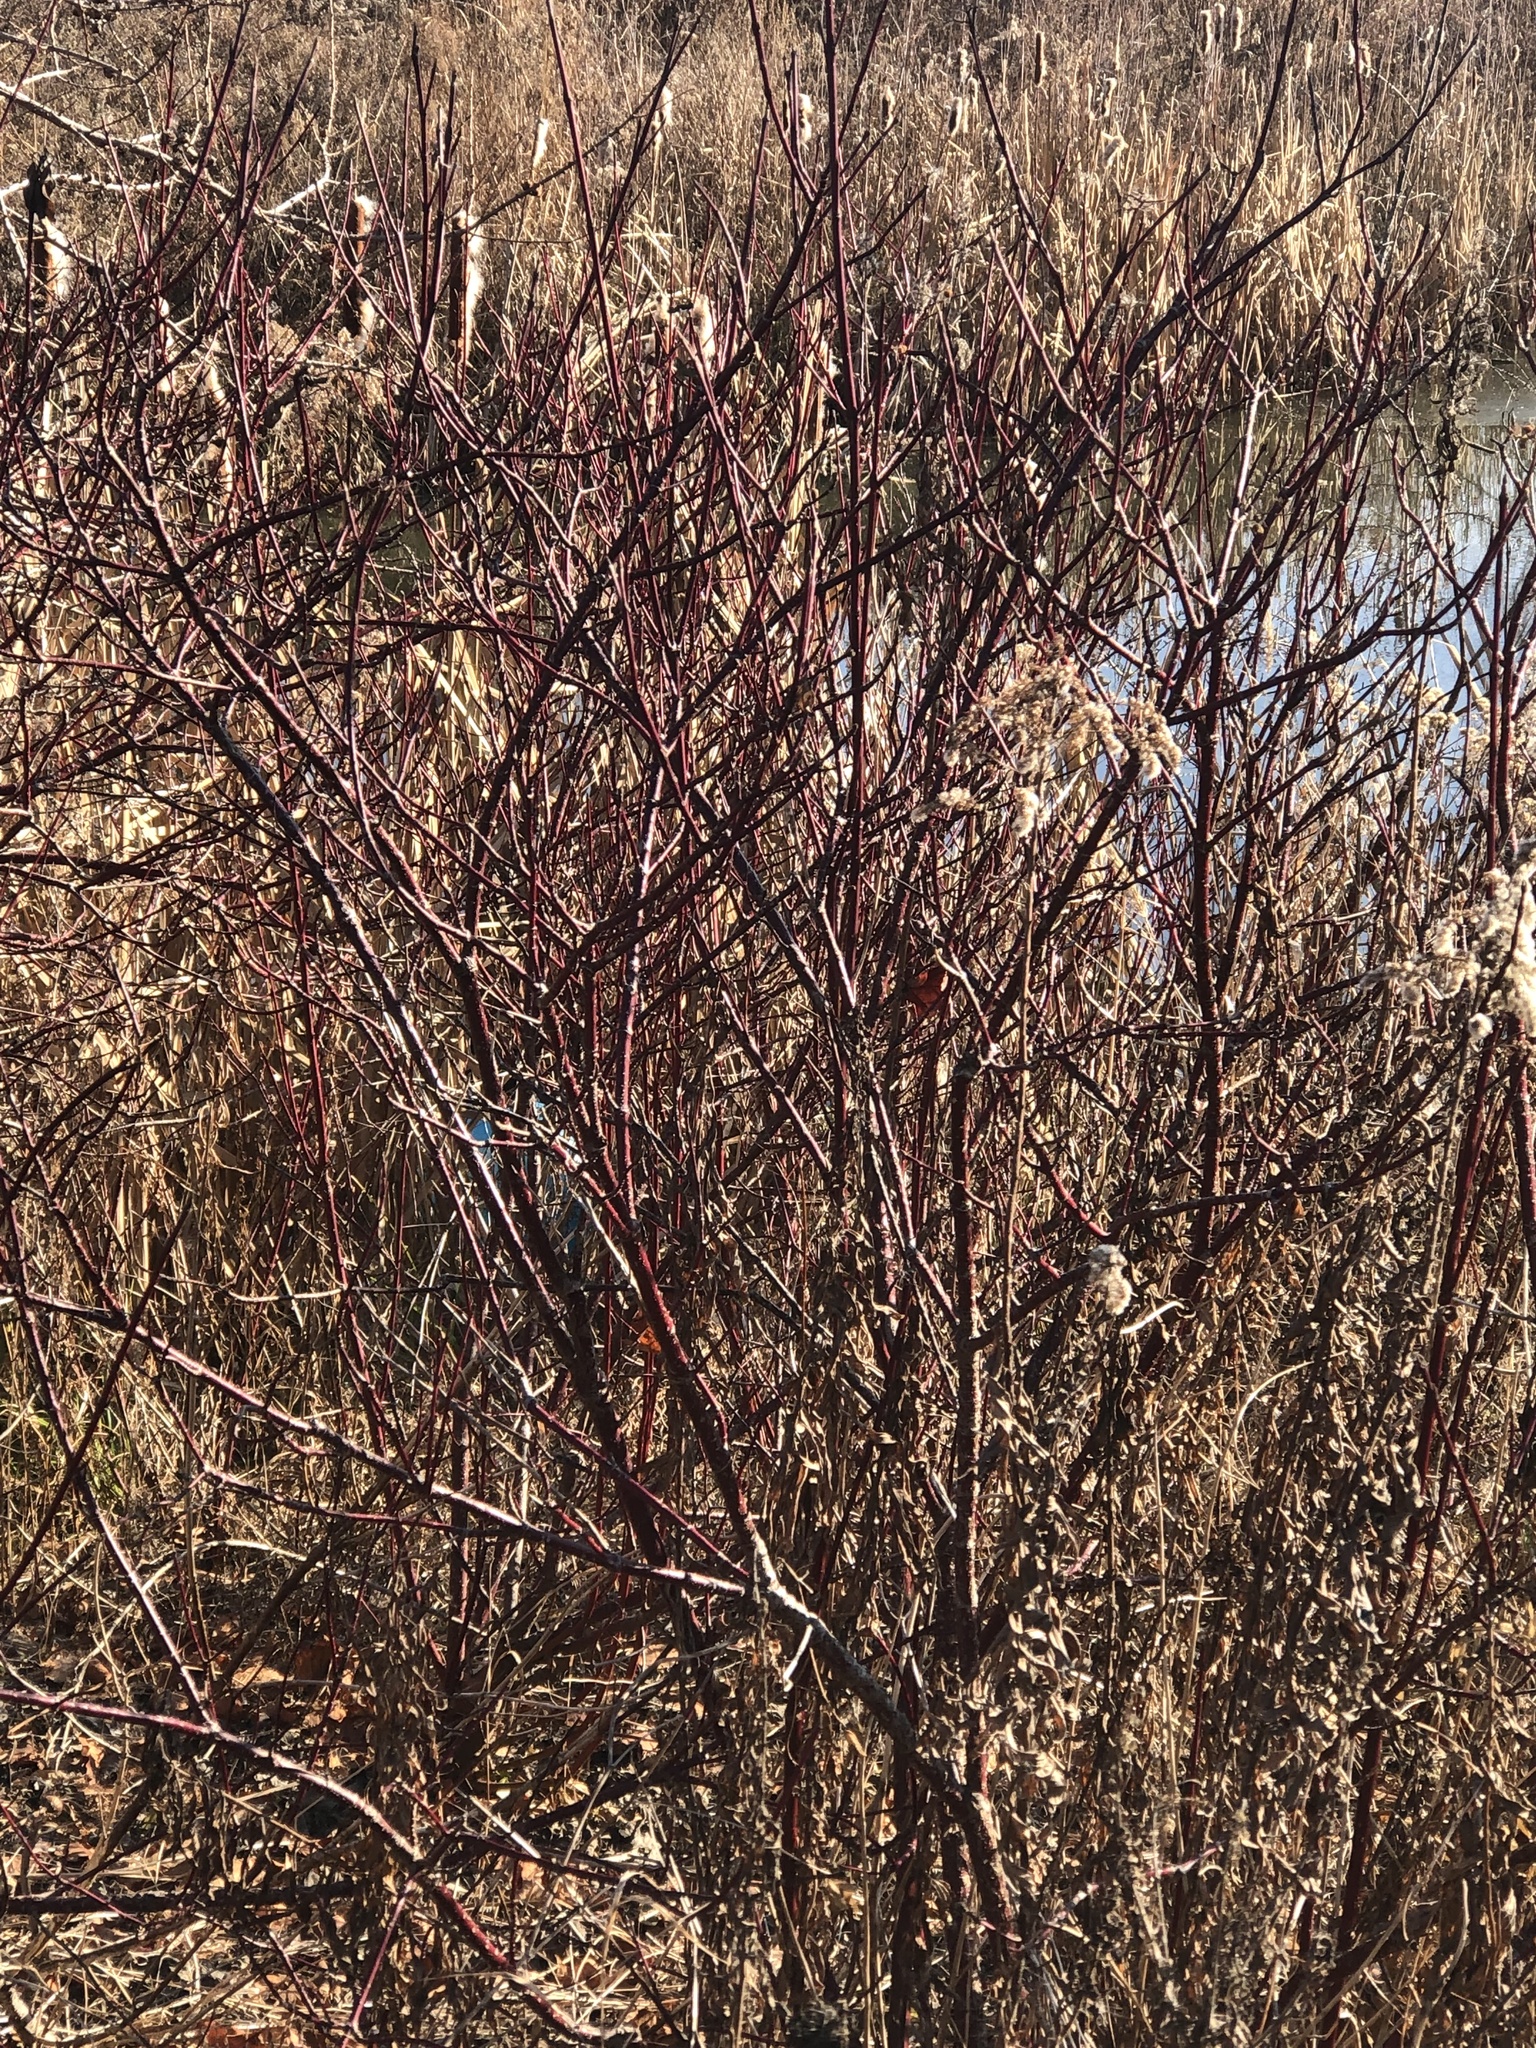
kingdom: Plantae
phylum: Tracheophyta
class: Magnoliopsida
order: Cornales
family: Cornaceae
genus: Cornus
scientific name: Cornus sericea
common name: Red-osier dogwood
